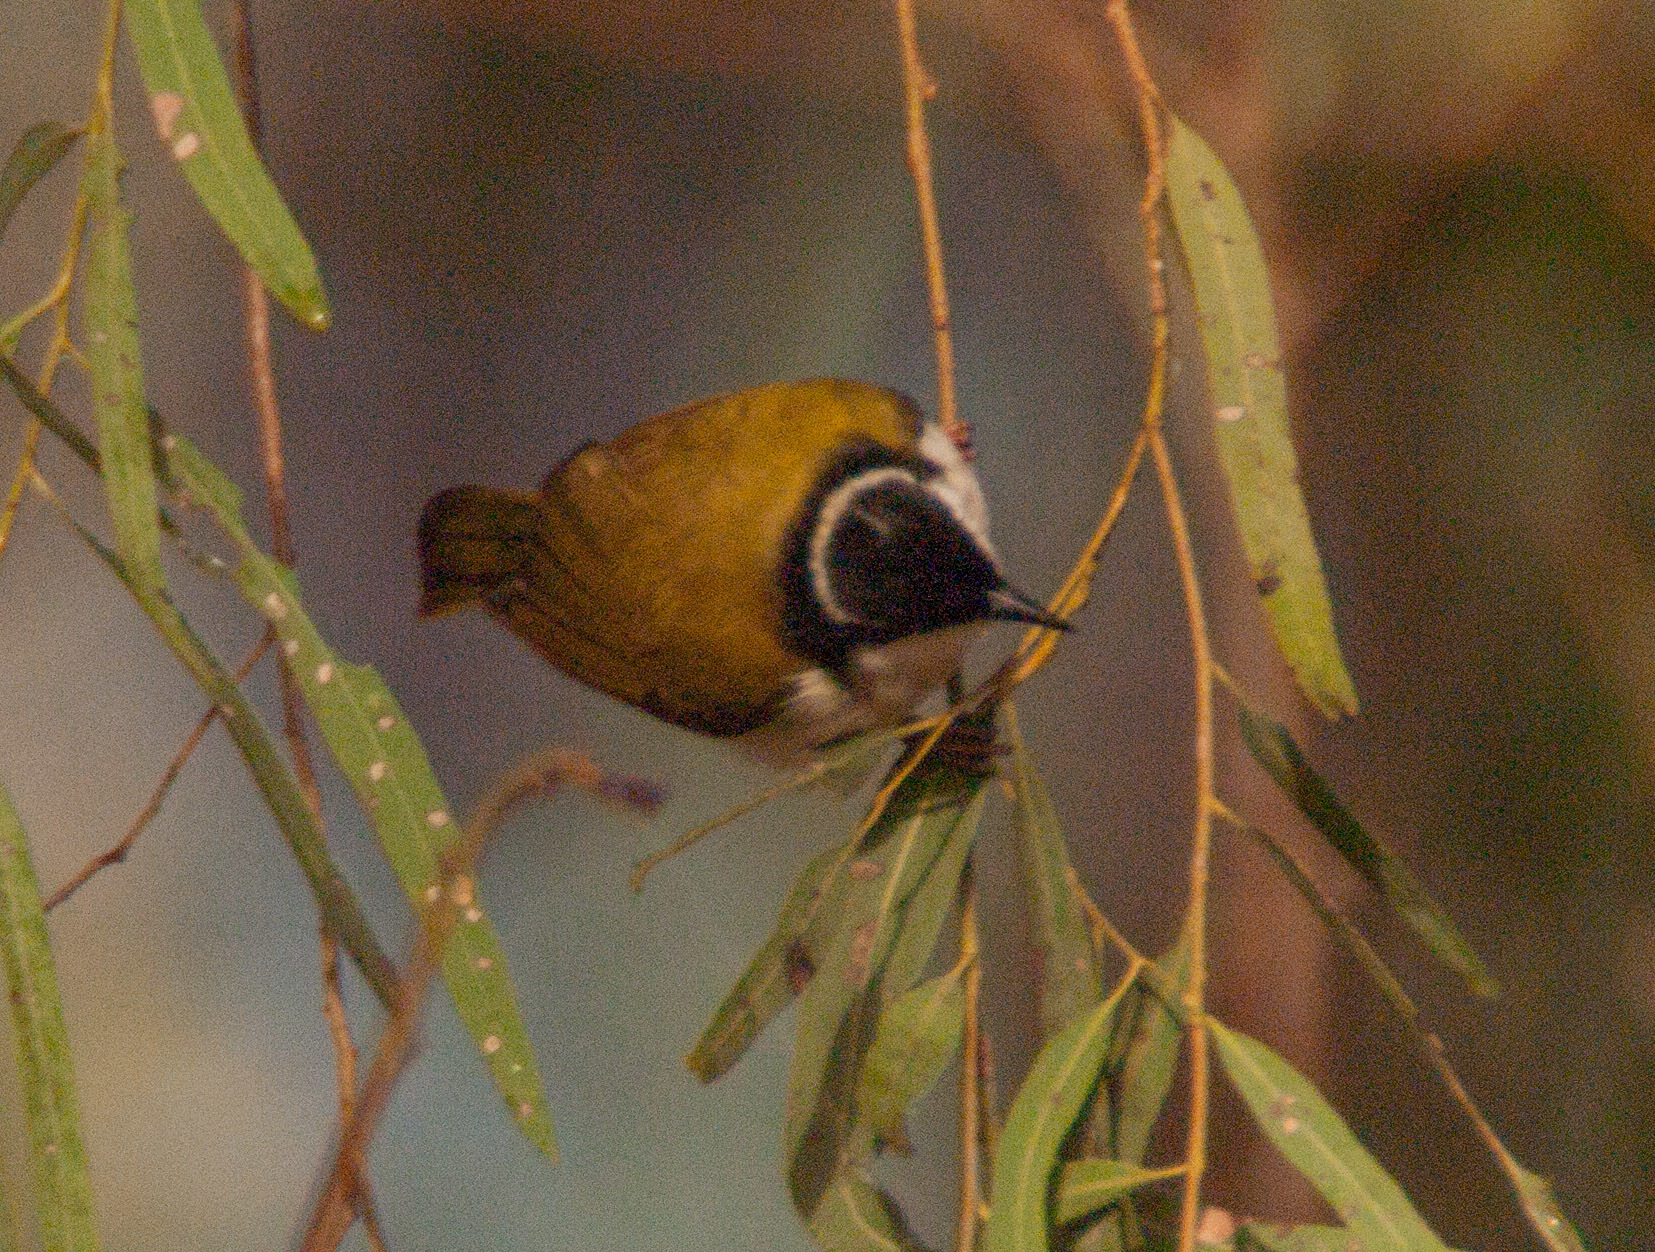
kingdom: Animalia
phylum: Chordata
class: Aves
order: Passeriformes
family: Meliphagidae
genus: Melithreptus
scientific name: Melithreptus albogularis
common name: White-throated honeyeater
